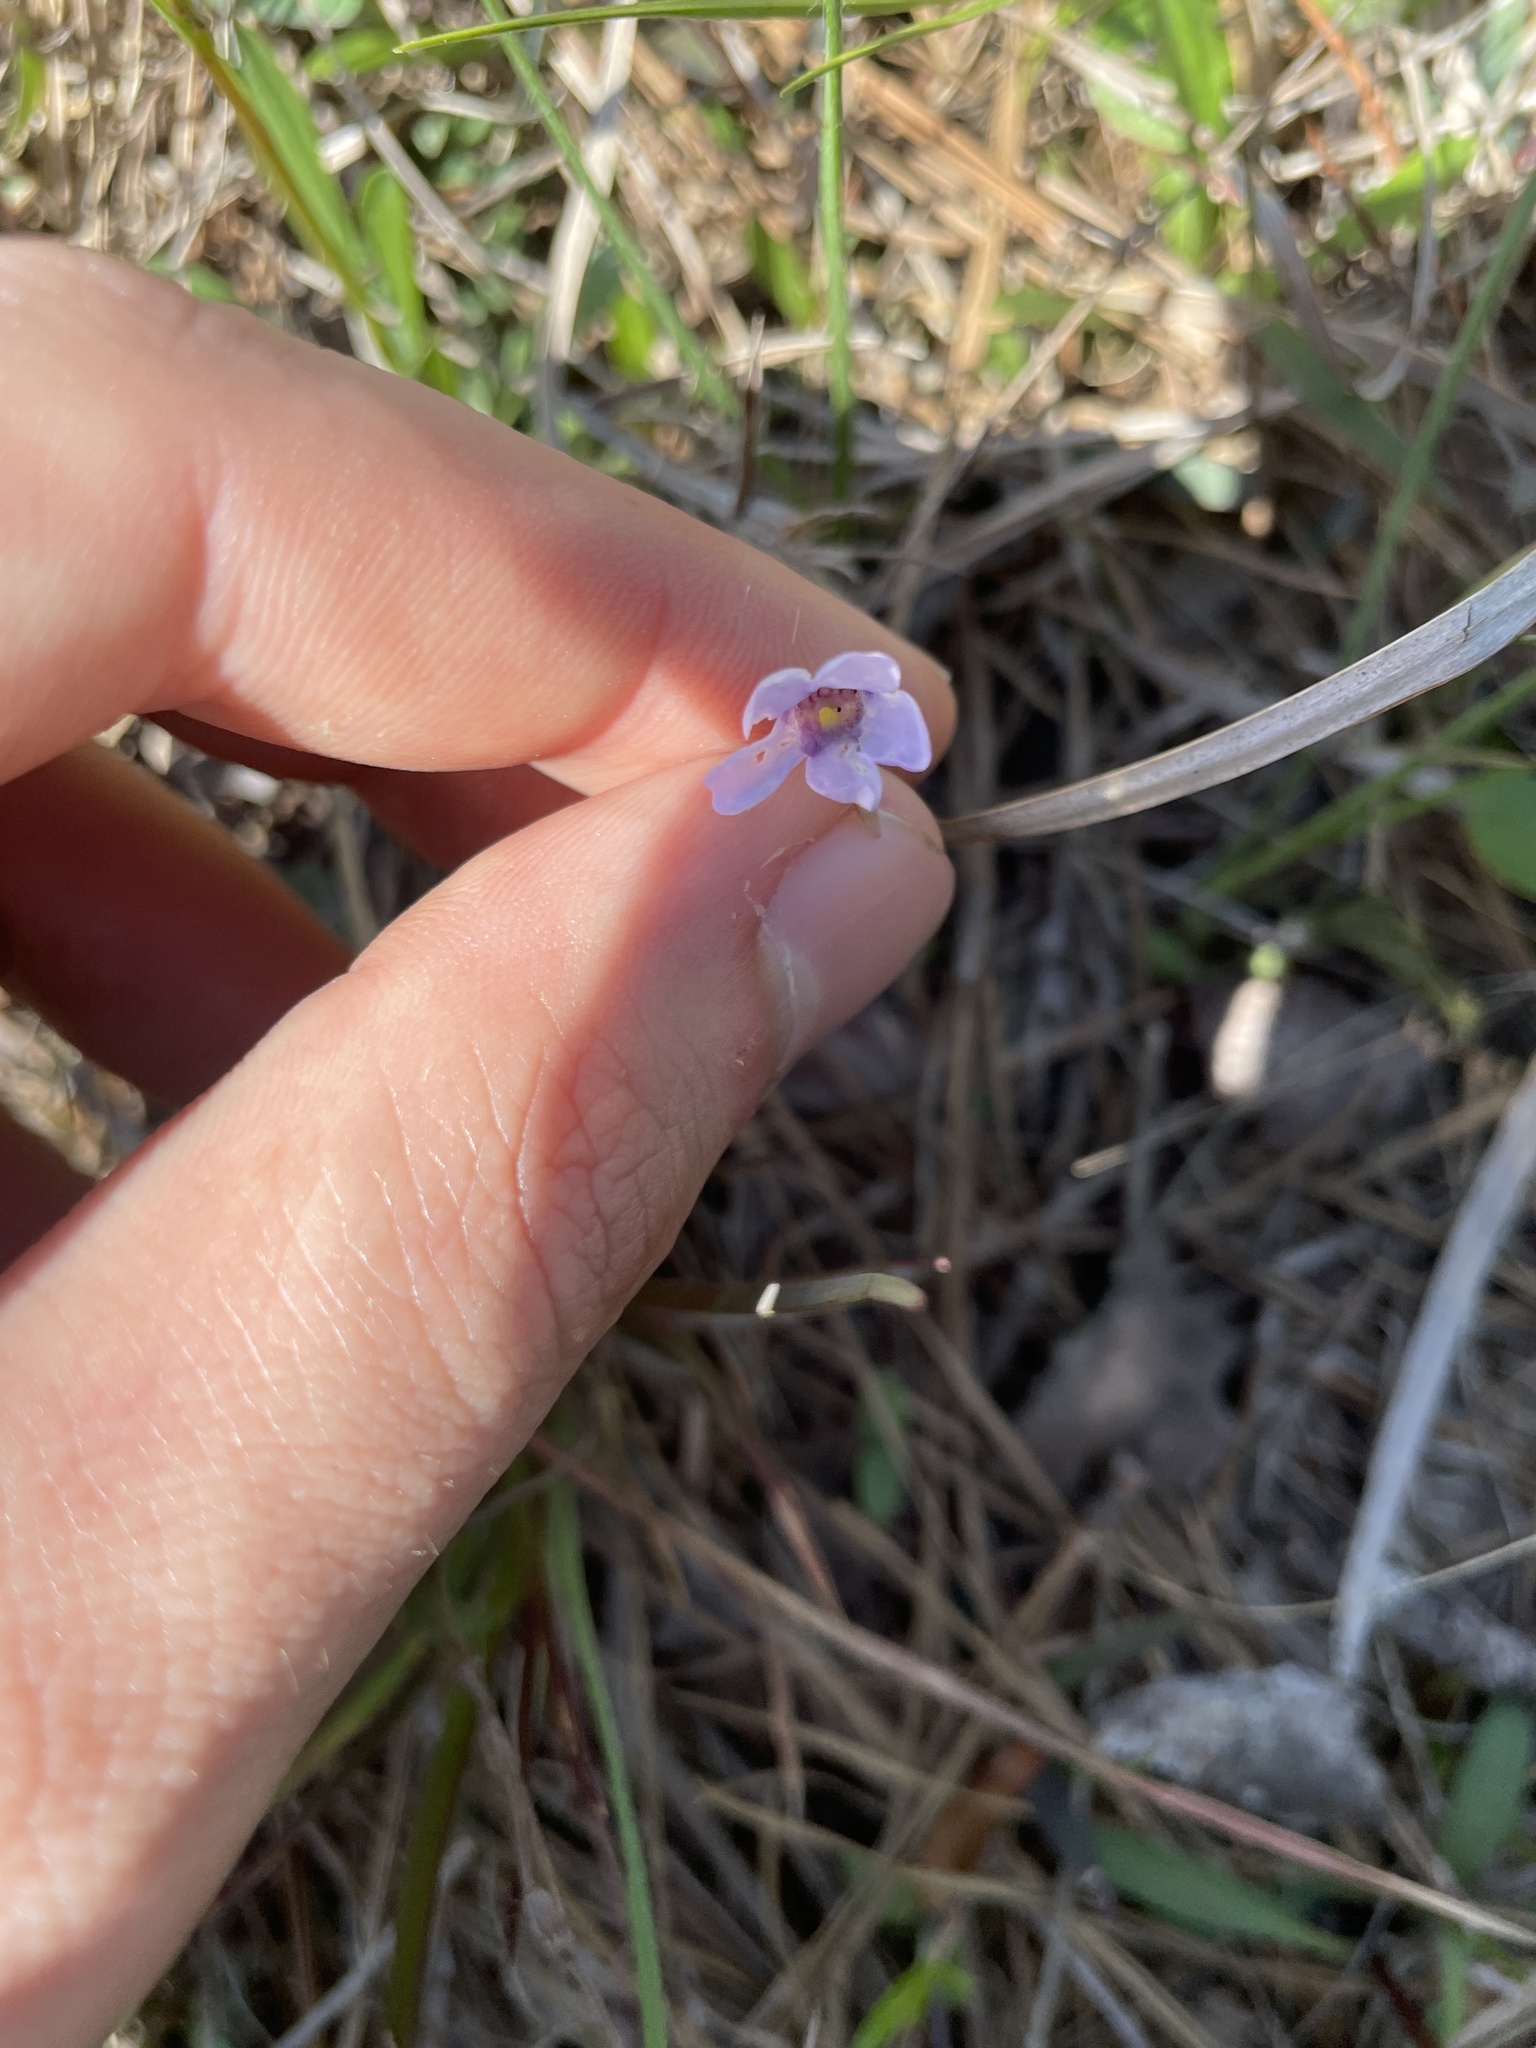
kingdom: Plantae
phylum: Tracheophyta
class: Magnoliopsida
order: Lamiales
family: Lentibulariaceae
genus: Pinguicula
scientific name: Pinguicula pumila
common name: Small butterwort
